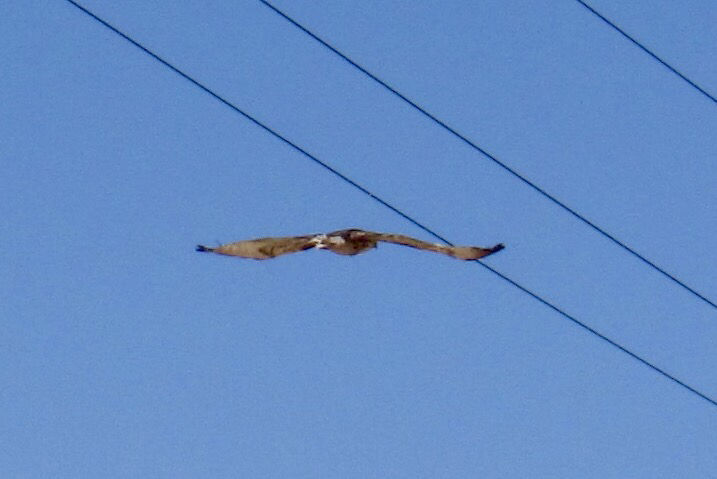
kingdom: Animalia
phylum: Chordata
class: Aves
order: Accipitriformes
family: Accipitridae
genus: Buteo
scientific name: Buteo jamaicensis
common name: Red-tailed hawk
